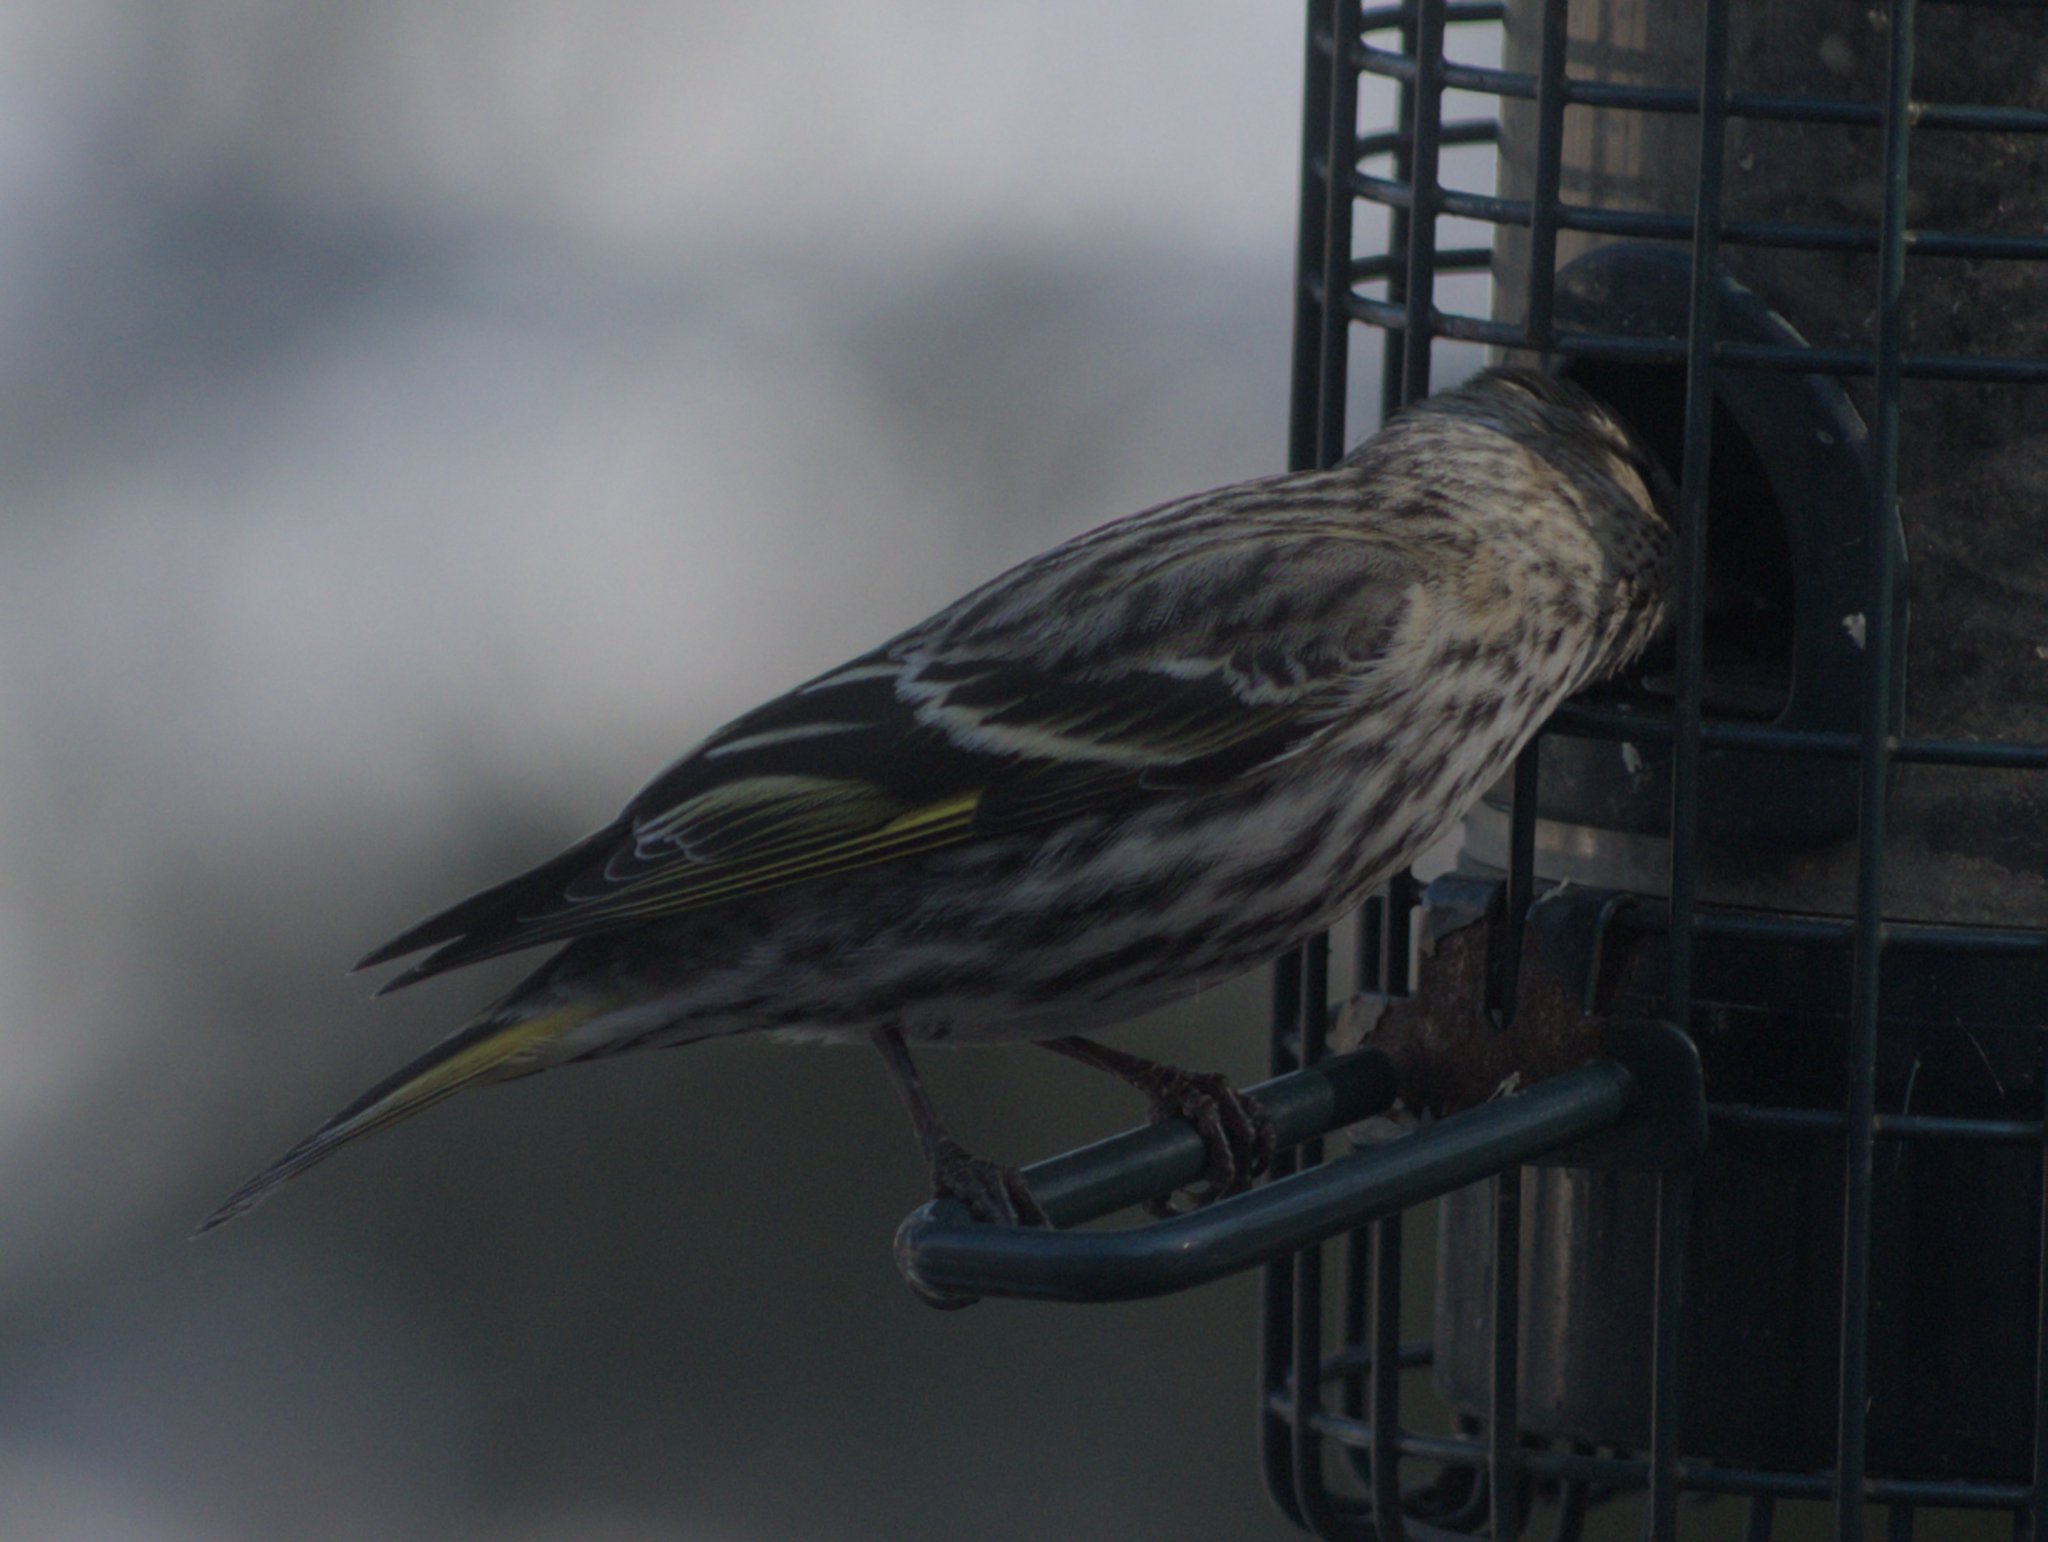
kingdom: Animalia
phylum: Chordata
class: Aves
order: Passeriformes
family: Fringillidae
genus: Spinus
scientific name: Spinus pinus
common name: Pine siskin
